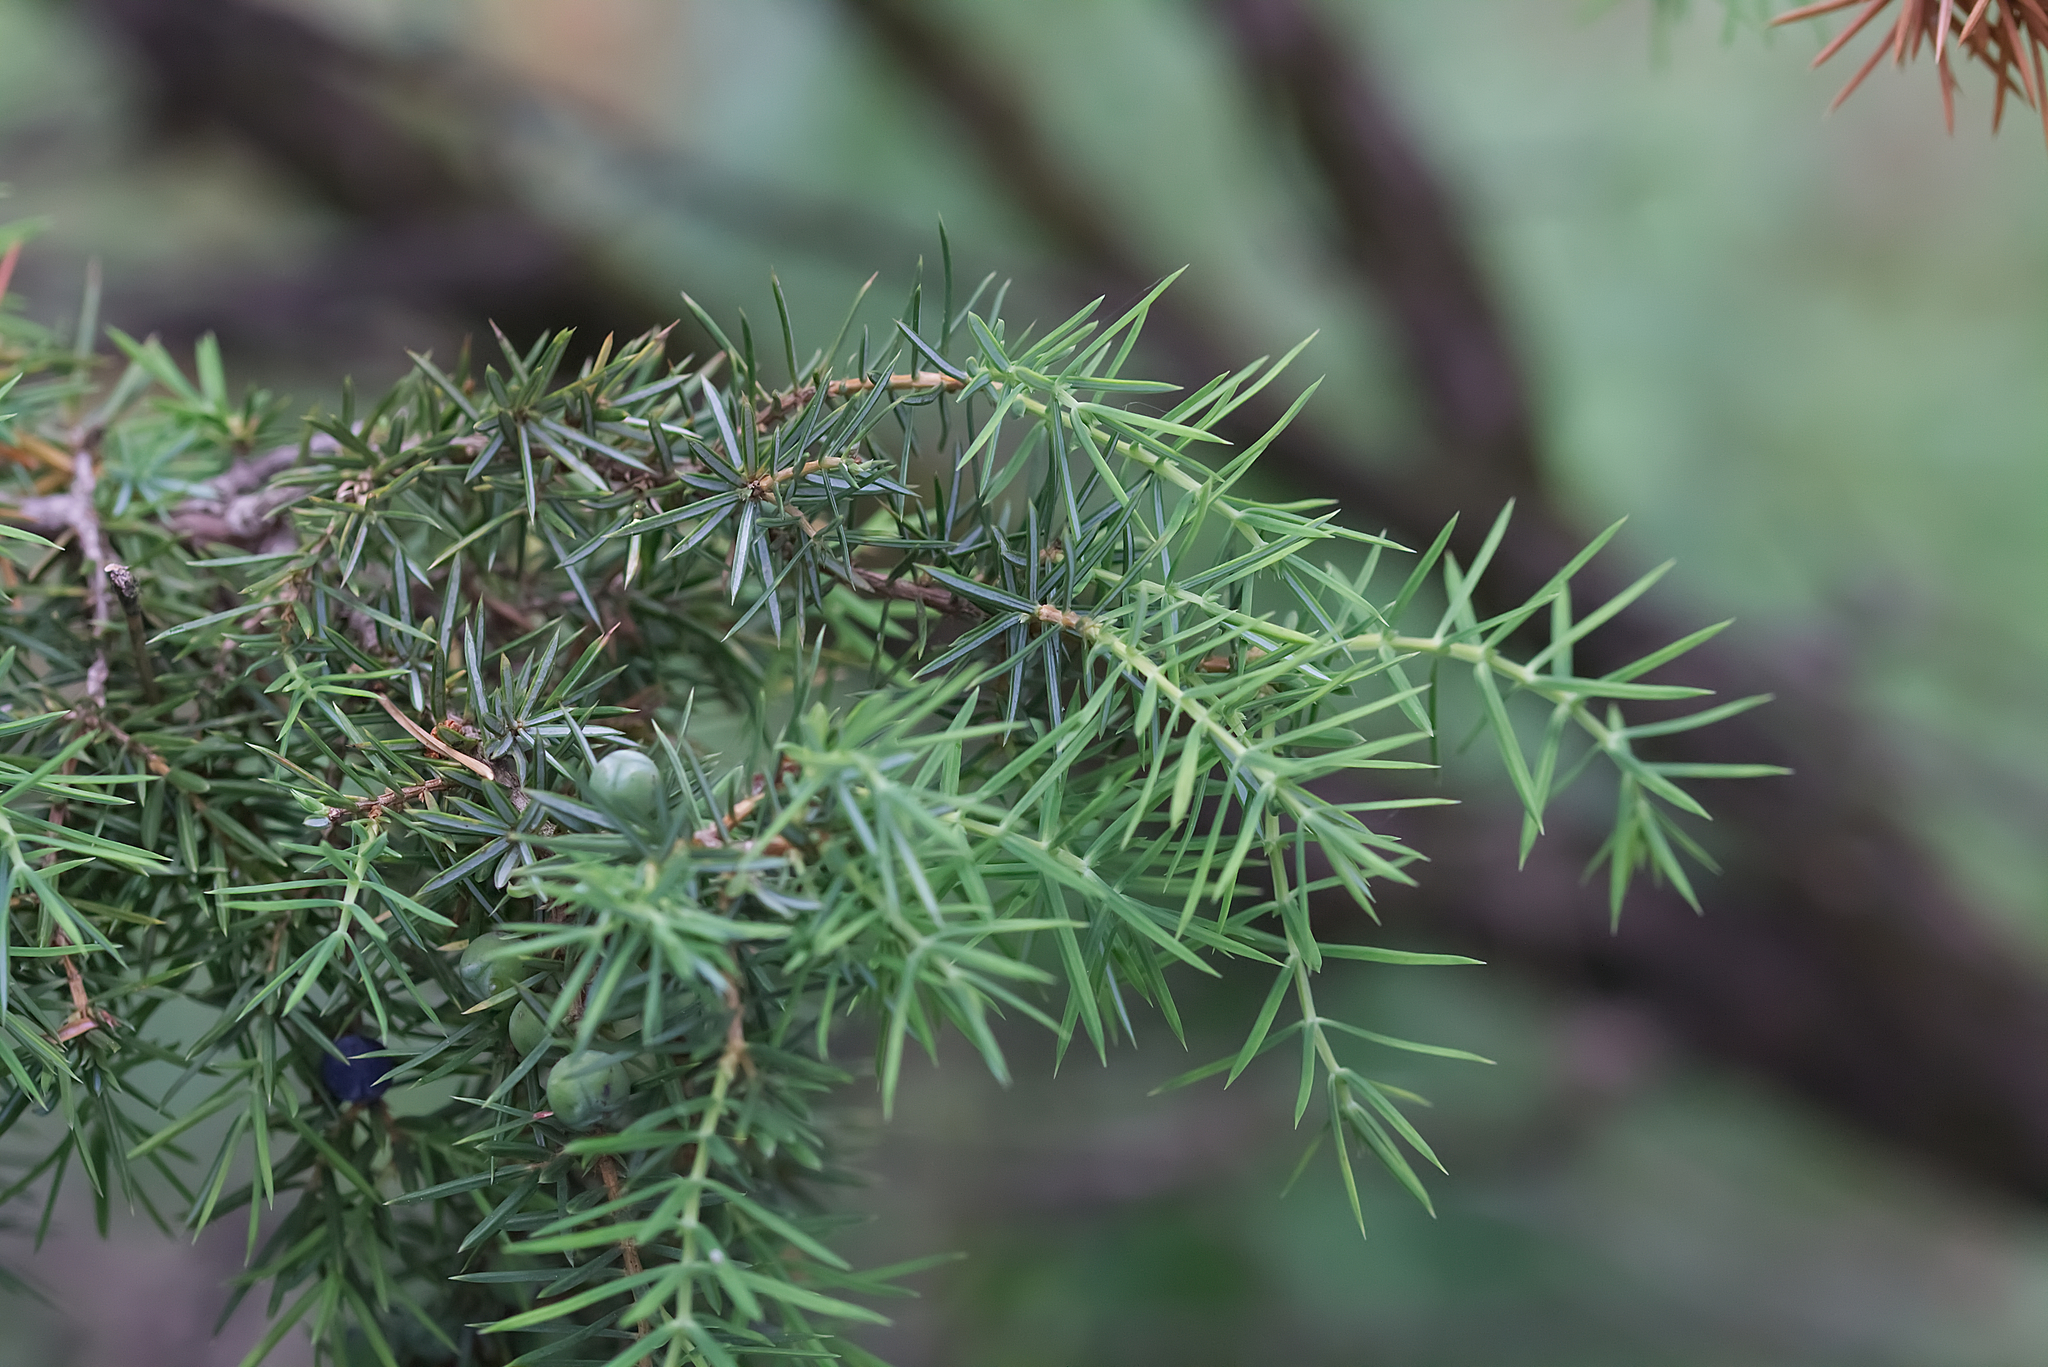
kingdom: Plantae
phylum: Tracheophyta
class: Pinopsida
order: Pinales
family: Cupressaceae
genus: Juniperus
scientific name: Juniperus communis
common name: Common juniper
